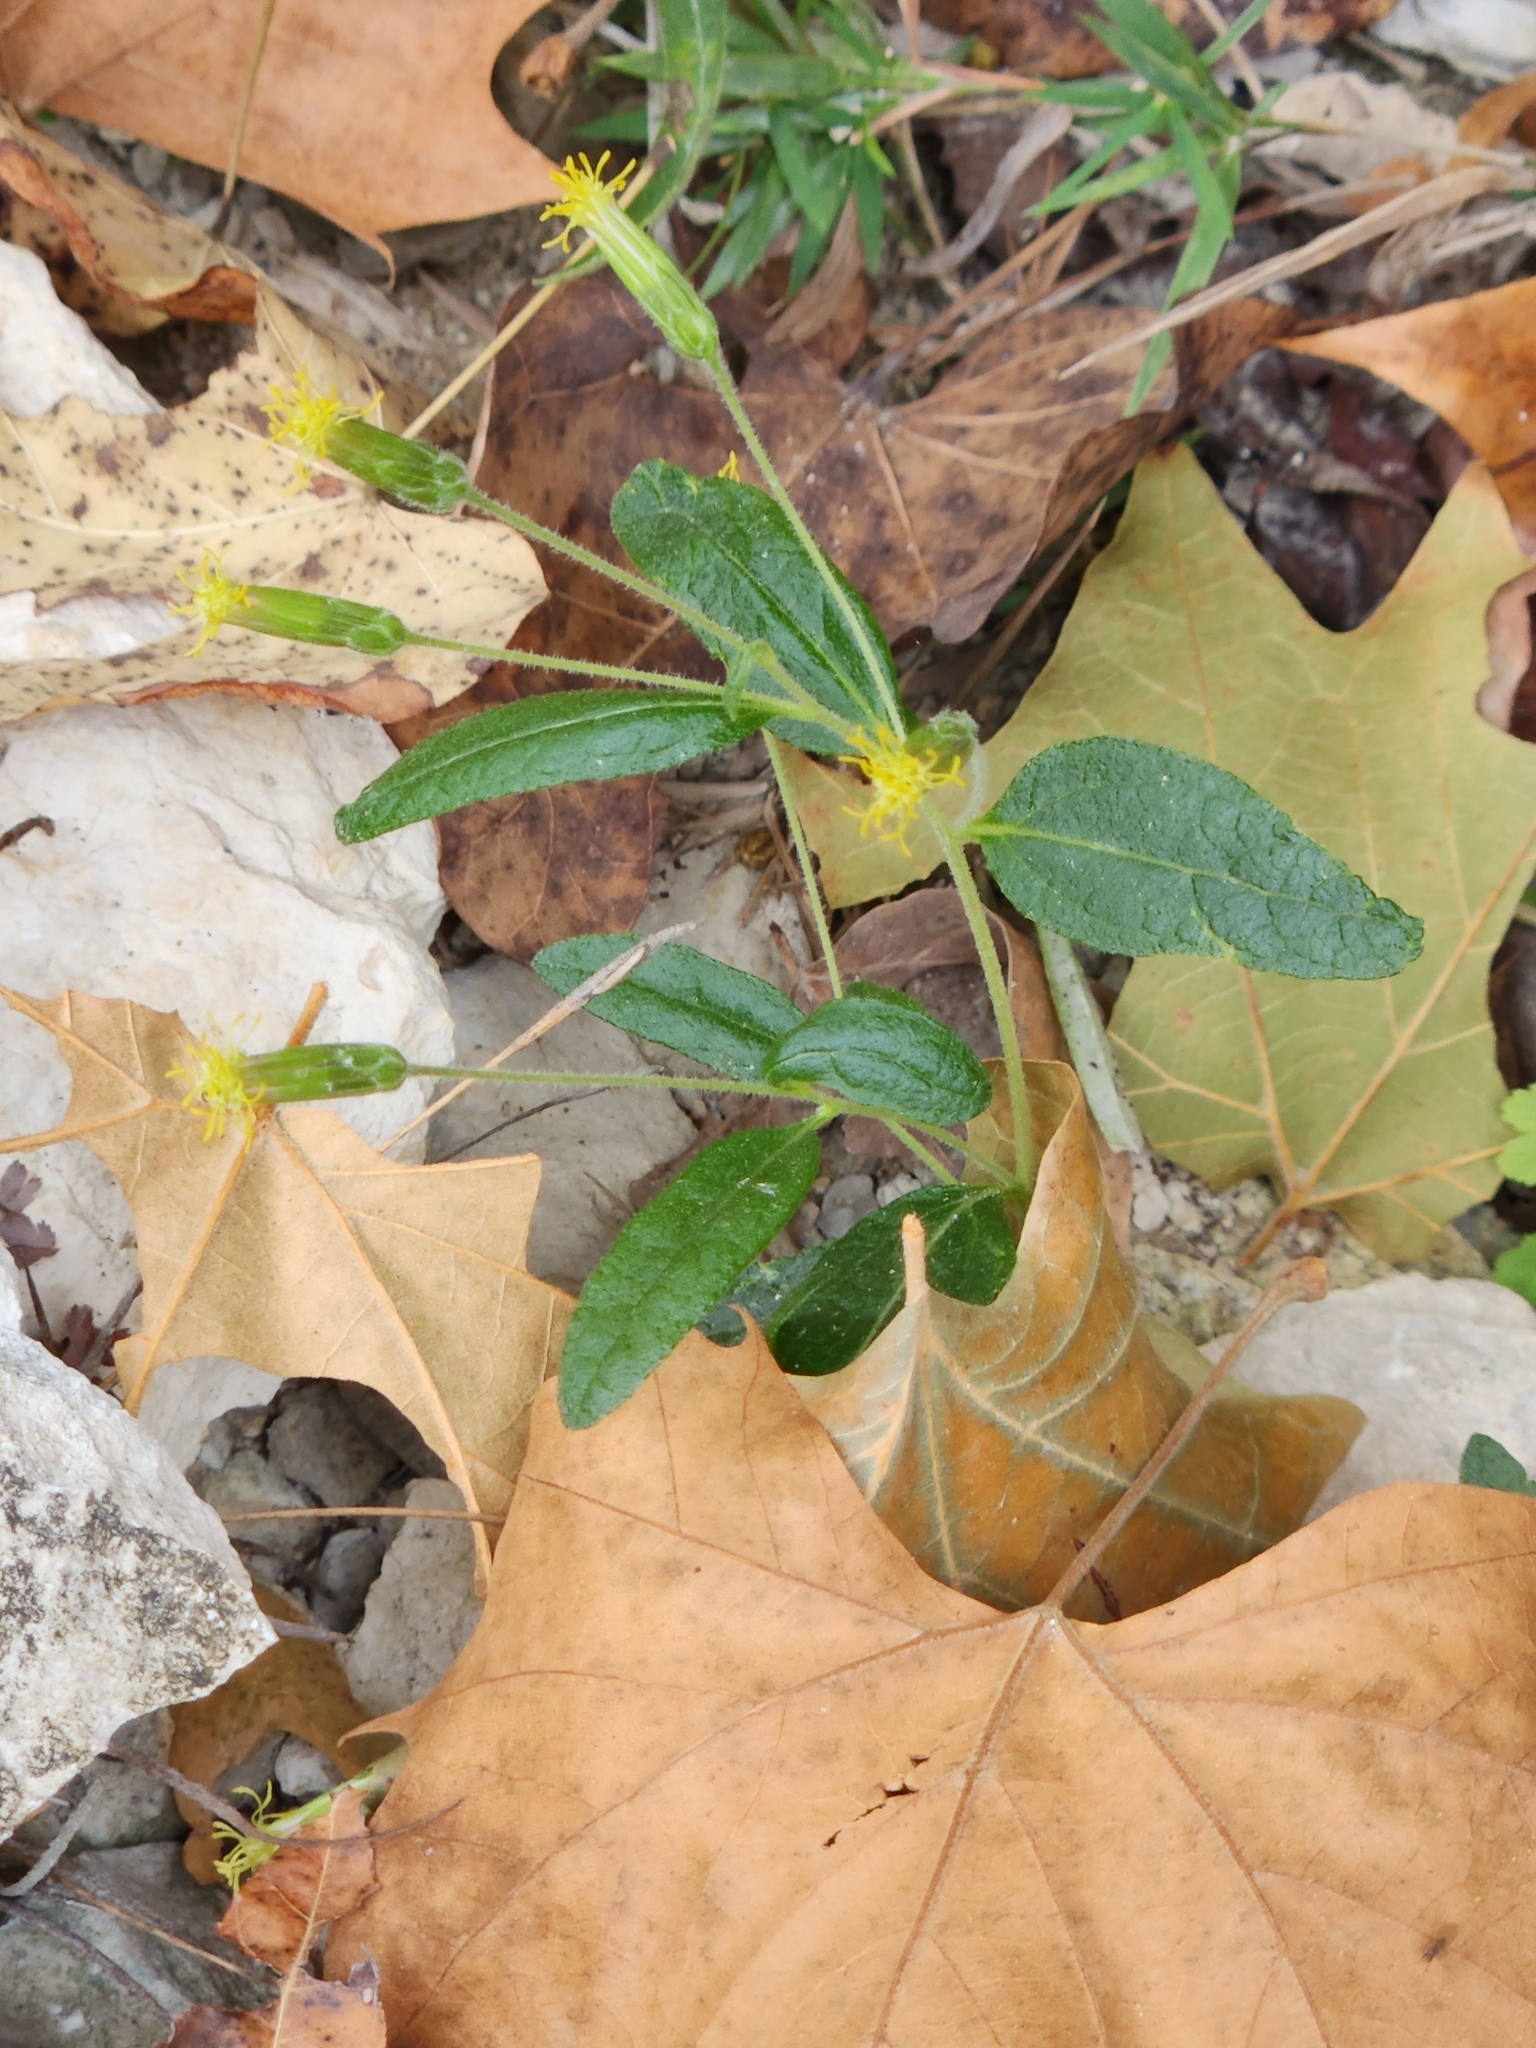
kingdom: Plantae
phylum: Tracheophyta
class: Magnoliopsida
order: Asterales
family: Asteraceae
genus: Brickellia
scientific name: Brickellia cylindracea
